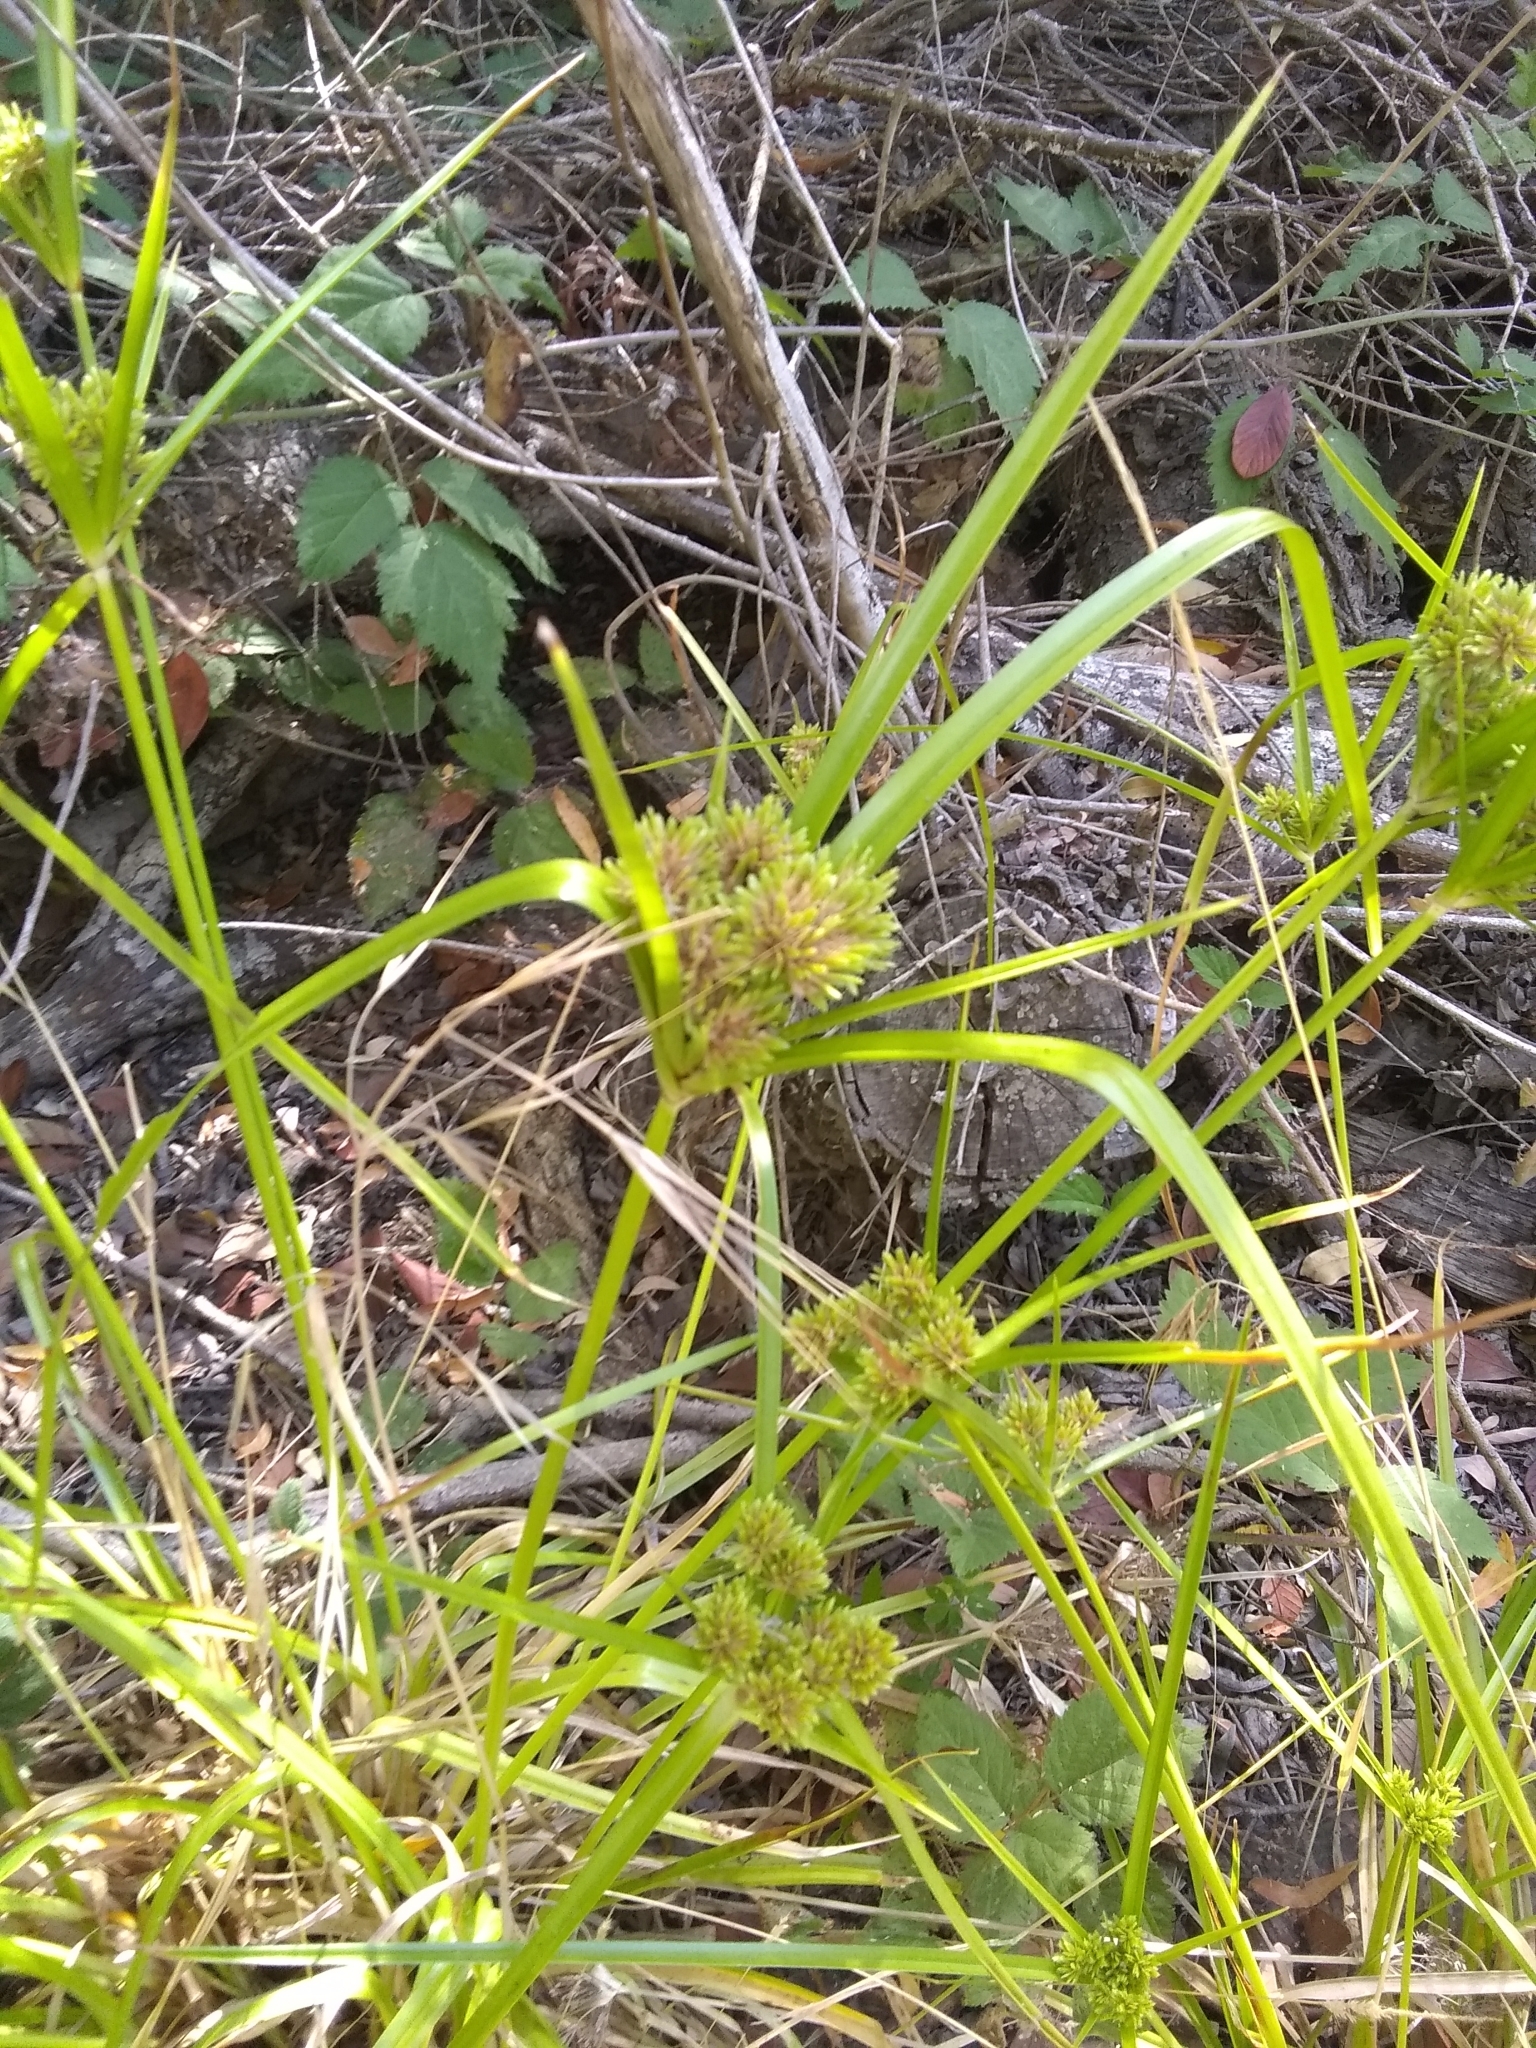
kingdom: Plantae
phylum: Tracheophyta
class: Liliopsida
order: Poales
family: Cyperaceae
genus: Cyperus
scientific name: Cyperus eragrostis
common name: Tall flatsedge
